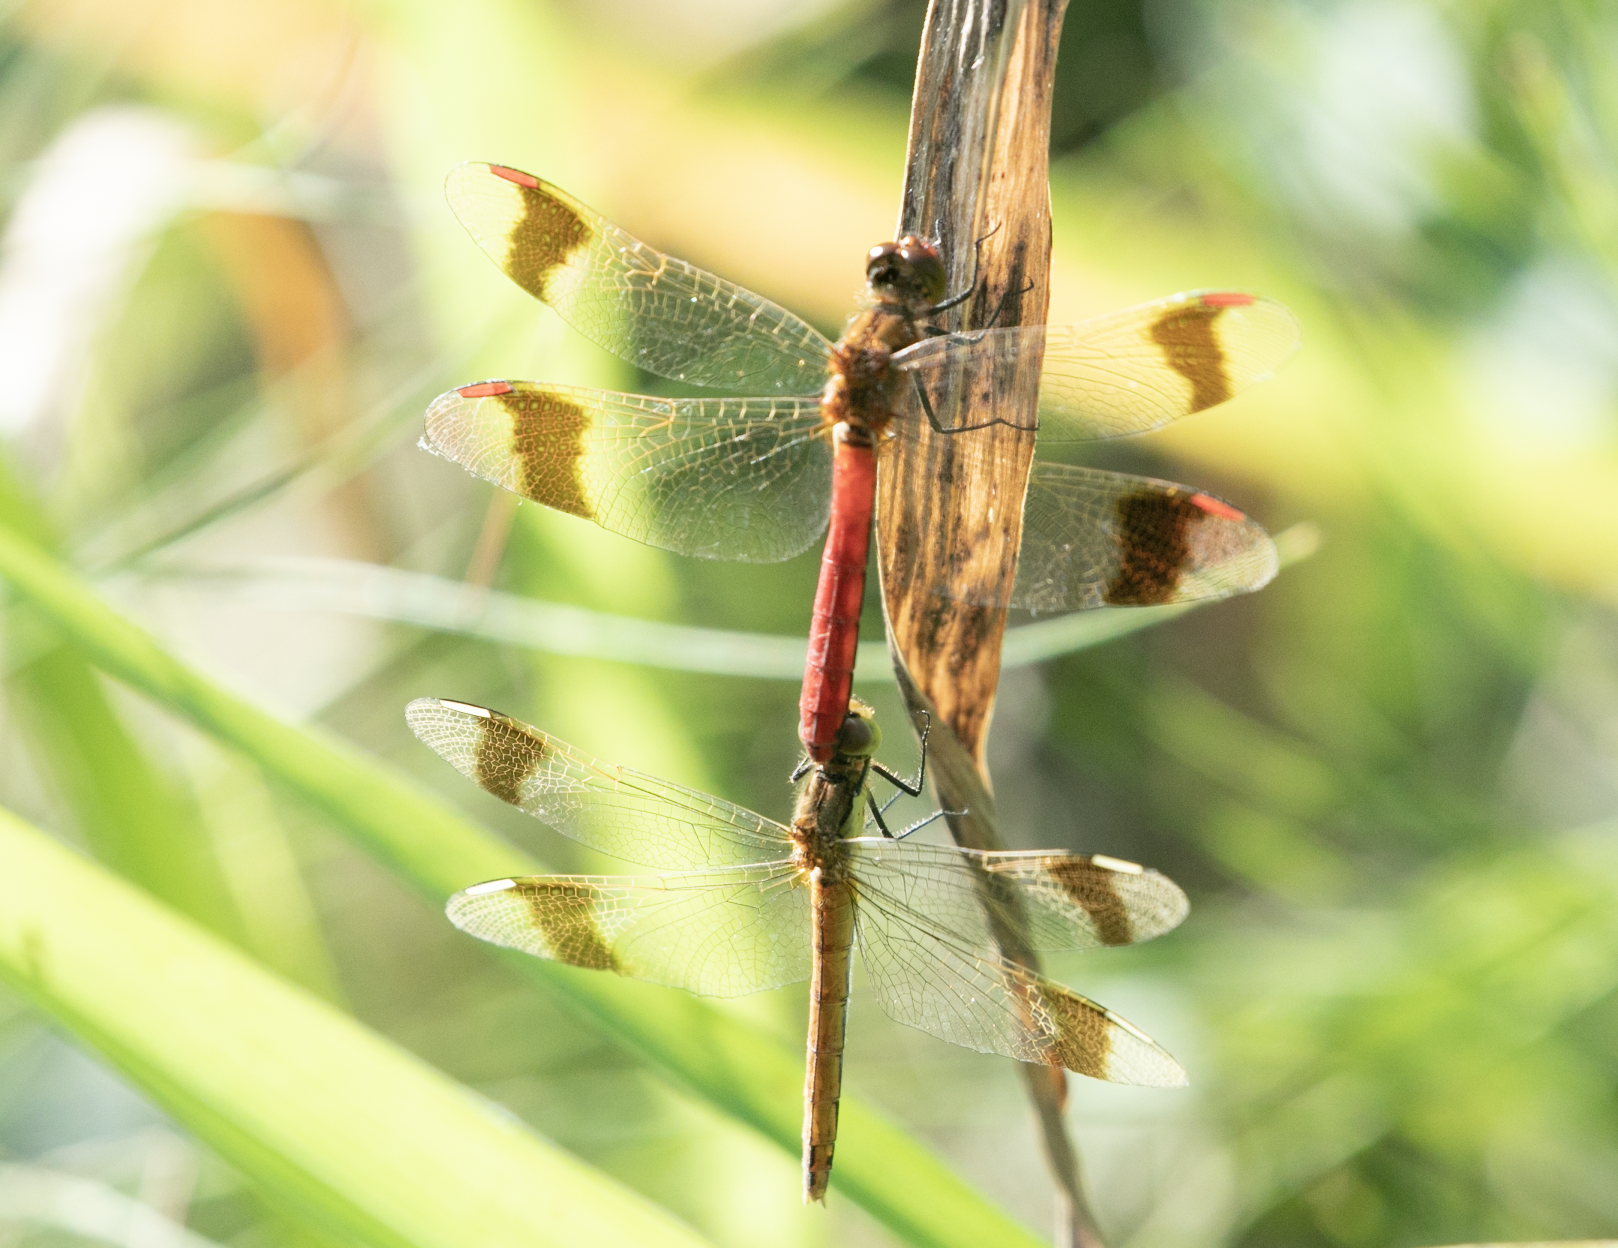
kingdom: Animalia
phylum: Arthropoda
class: Insecta
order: Odonata
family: Libellulidae
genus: Sympetrum
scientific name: Sympetrum pedemontanum
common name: Banded darter
